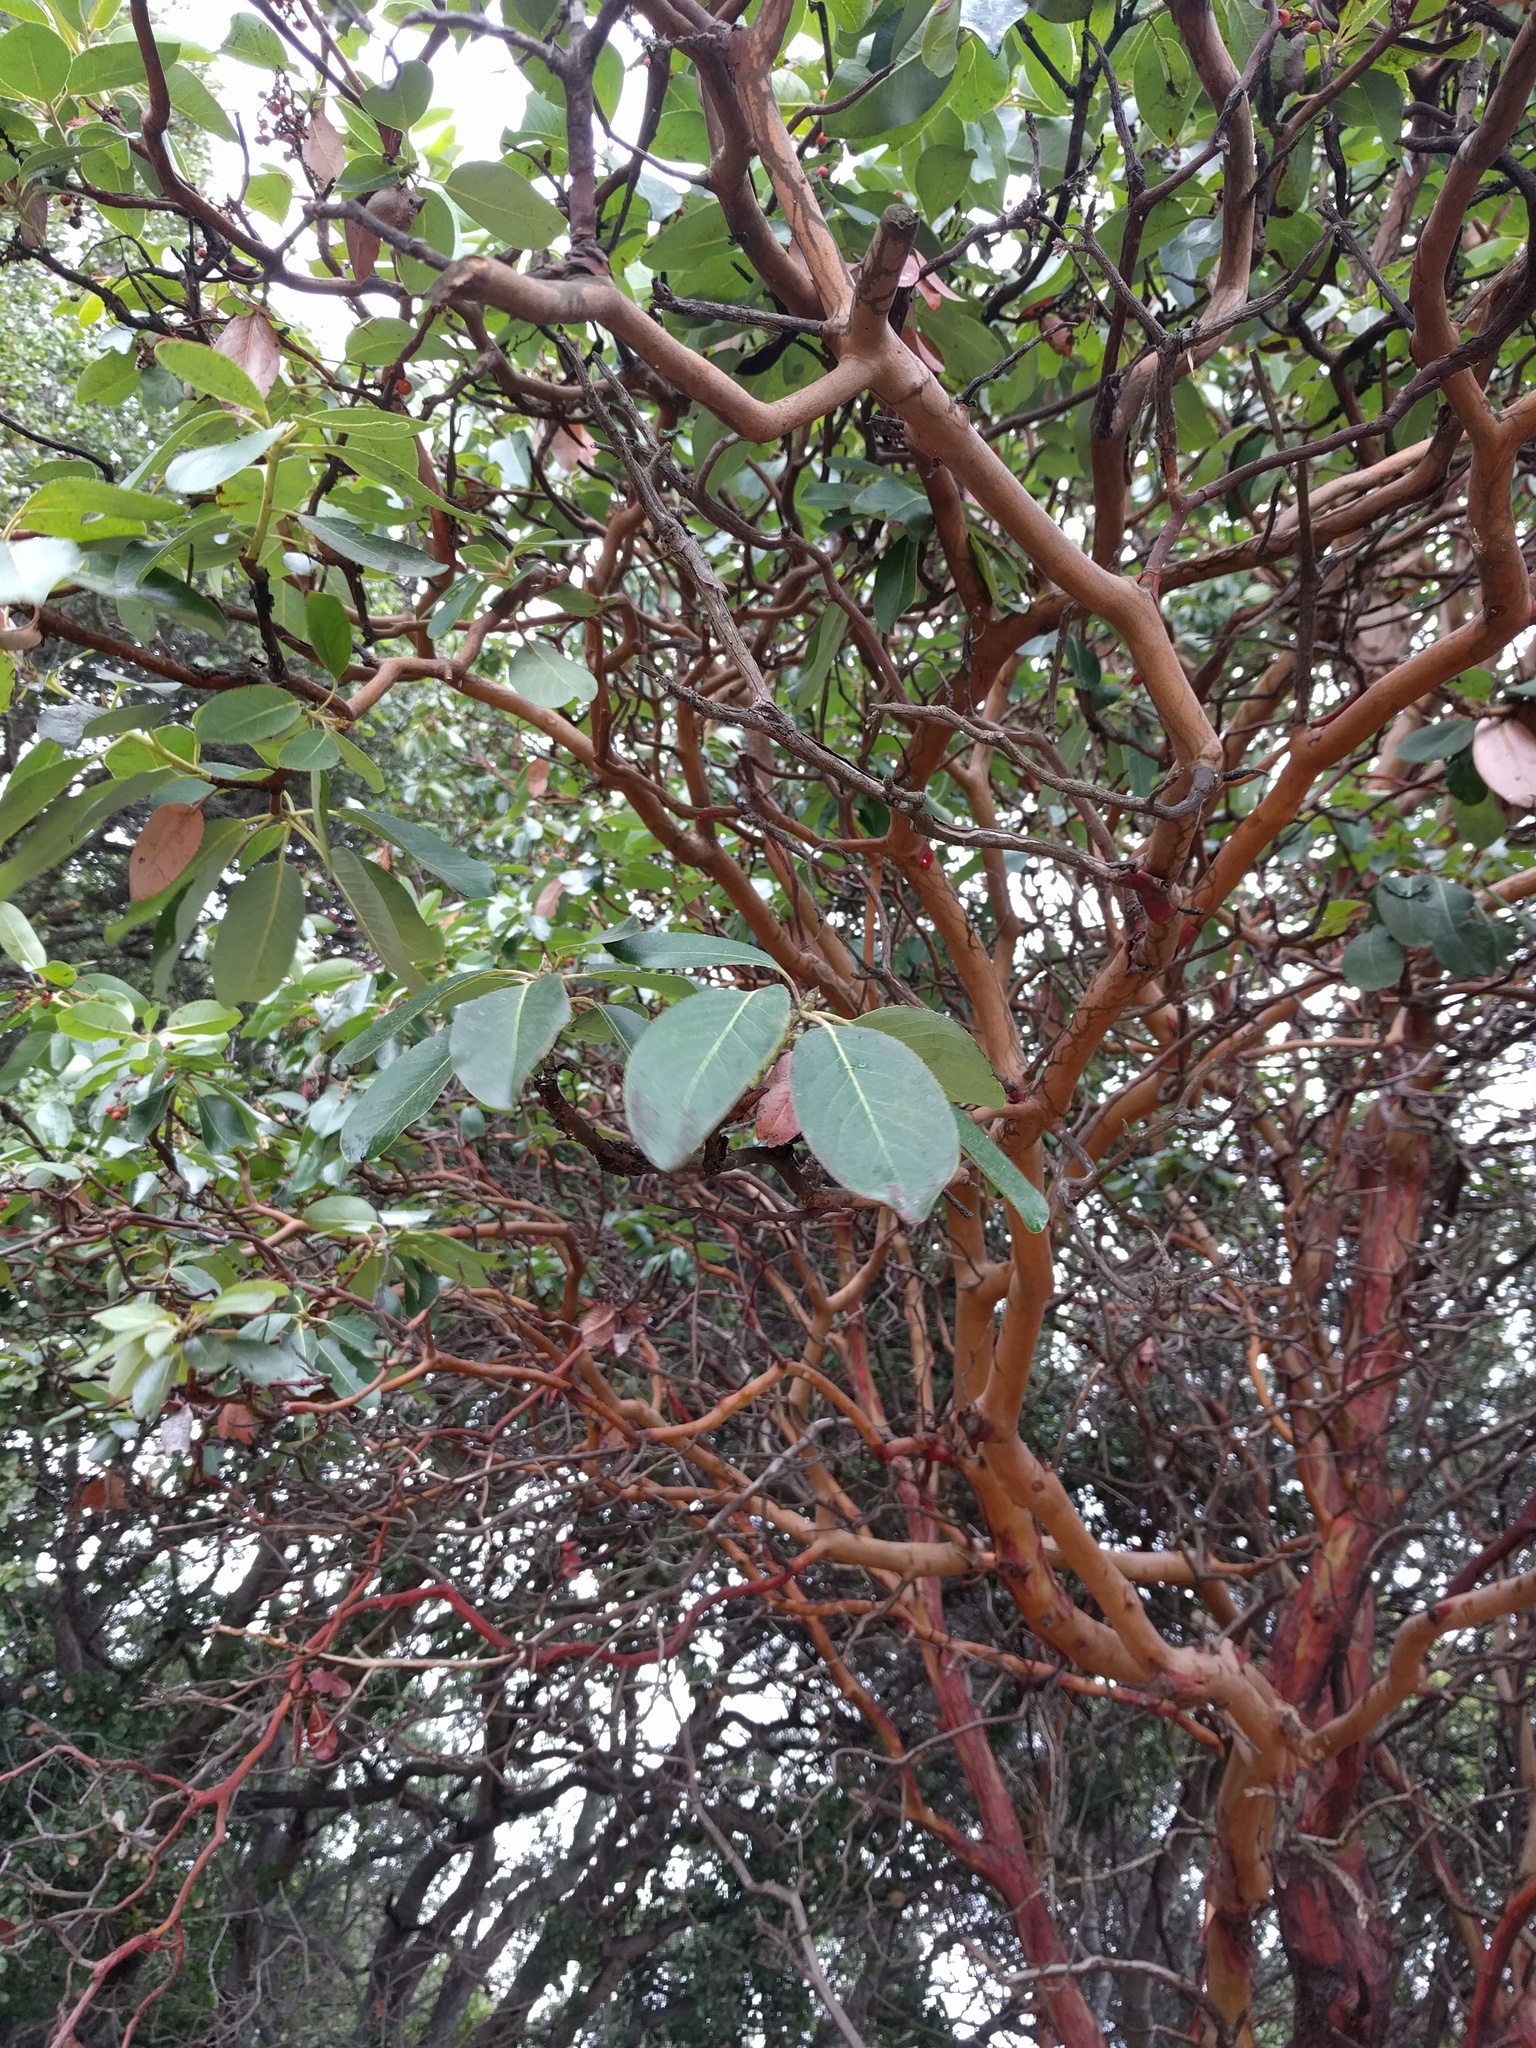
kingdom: Plantae
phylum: Tracheophyta
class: Magnoliopsida
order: Ericales
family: Ericaceae
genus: Arbutus
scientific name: Arbutus menziesii
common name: Pacific madrone
